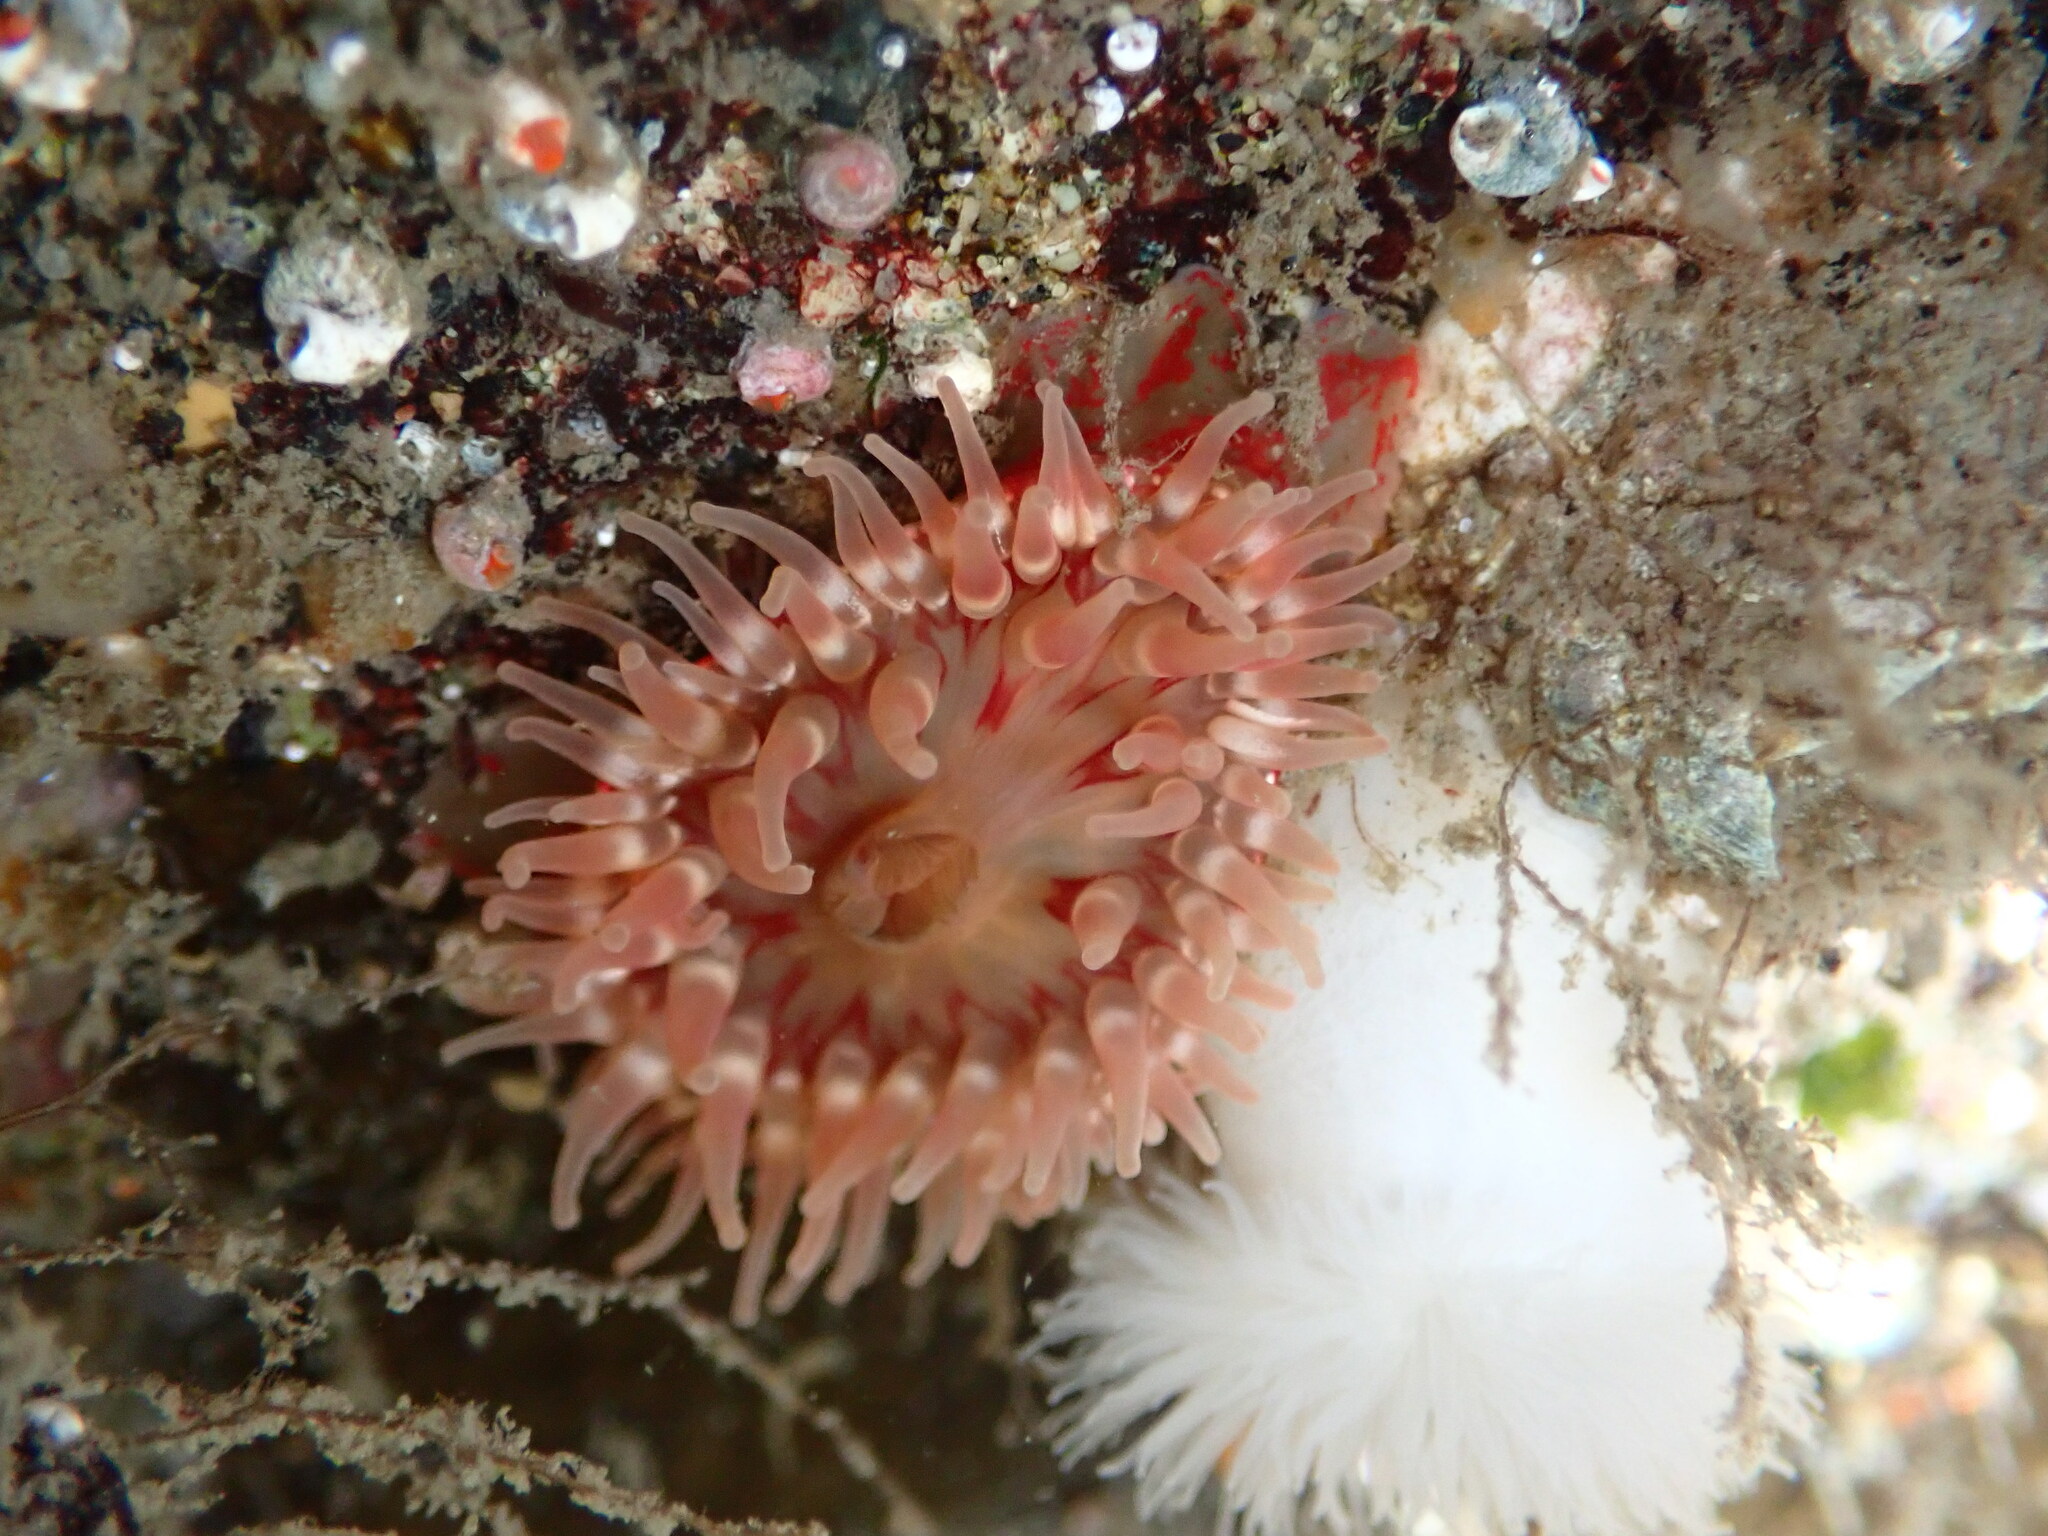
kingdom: Animalia
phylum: Cnidaria
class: Anthozoa
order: Actiniaria
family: Actiniidae
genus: Urticina
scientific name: Urticina grebelnyi
